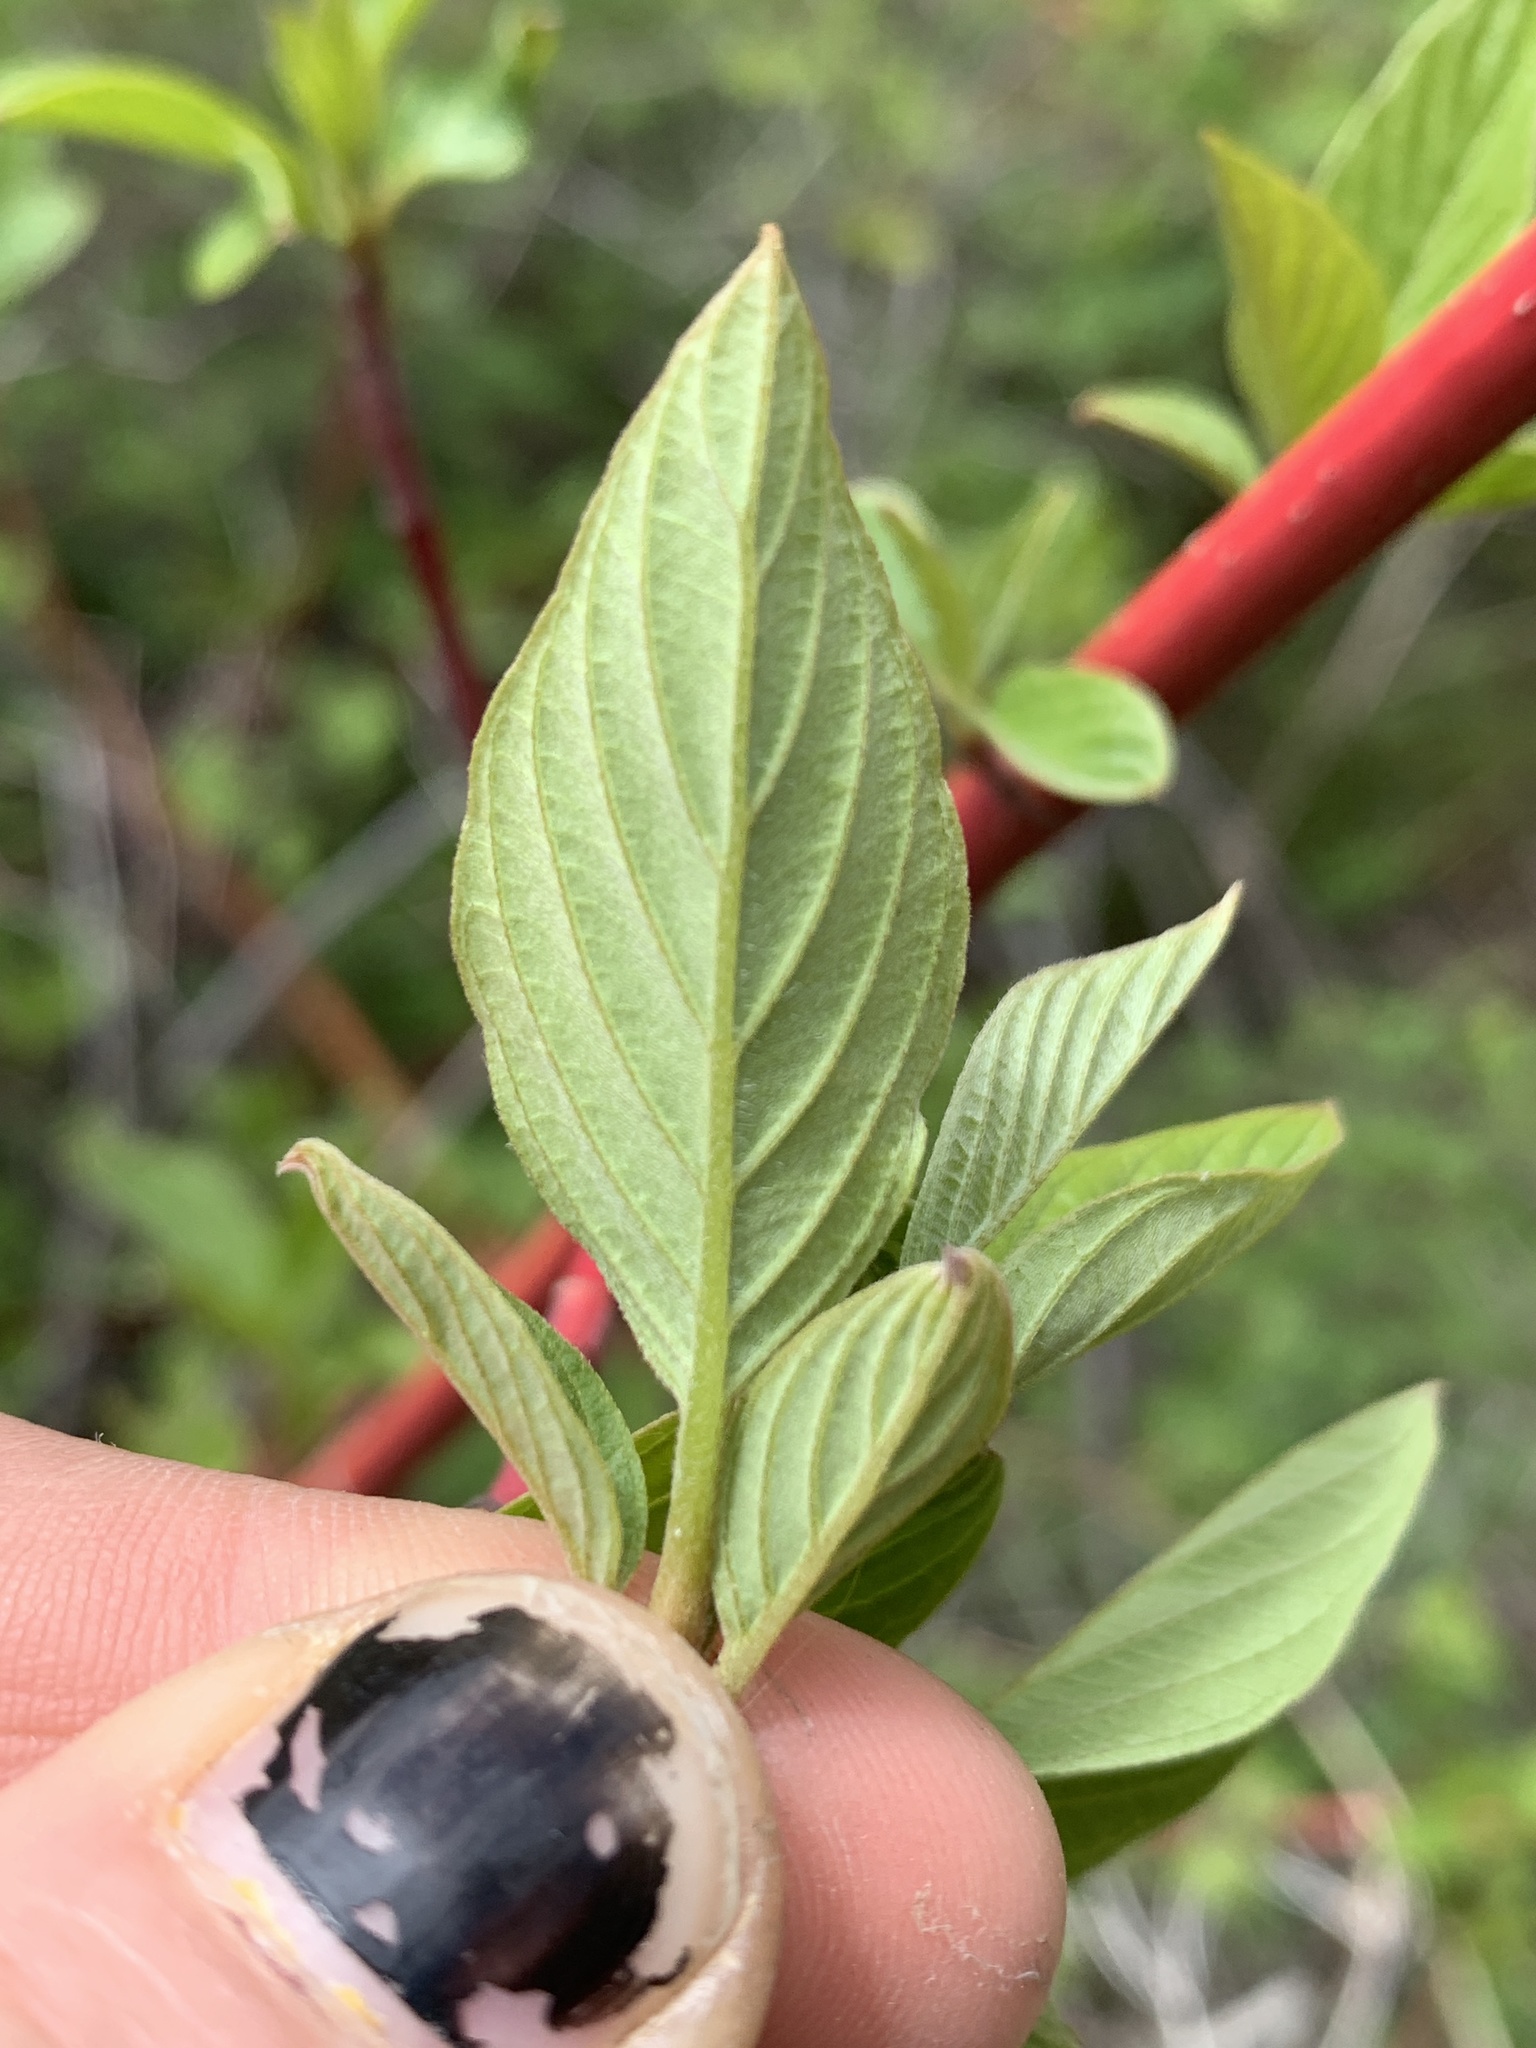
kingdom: Plantae
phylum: Tracheophyta
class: Magnoliopsida
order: Cornales
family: Cornaceae
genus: Cornus
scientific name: Cornus sericea
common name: Red-osier dogwood
